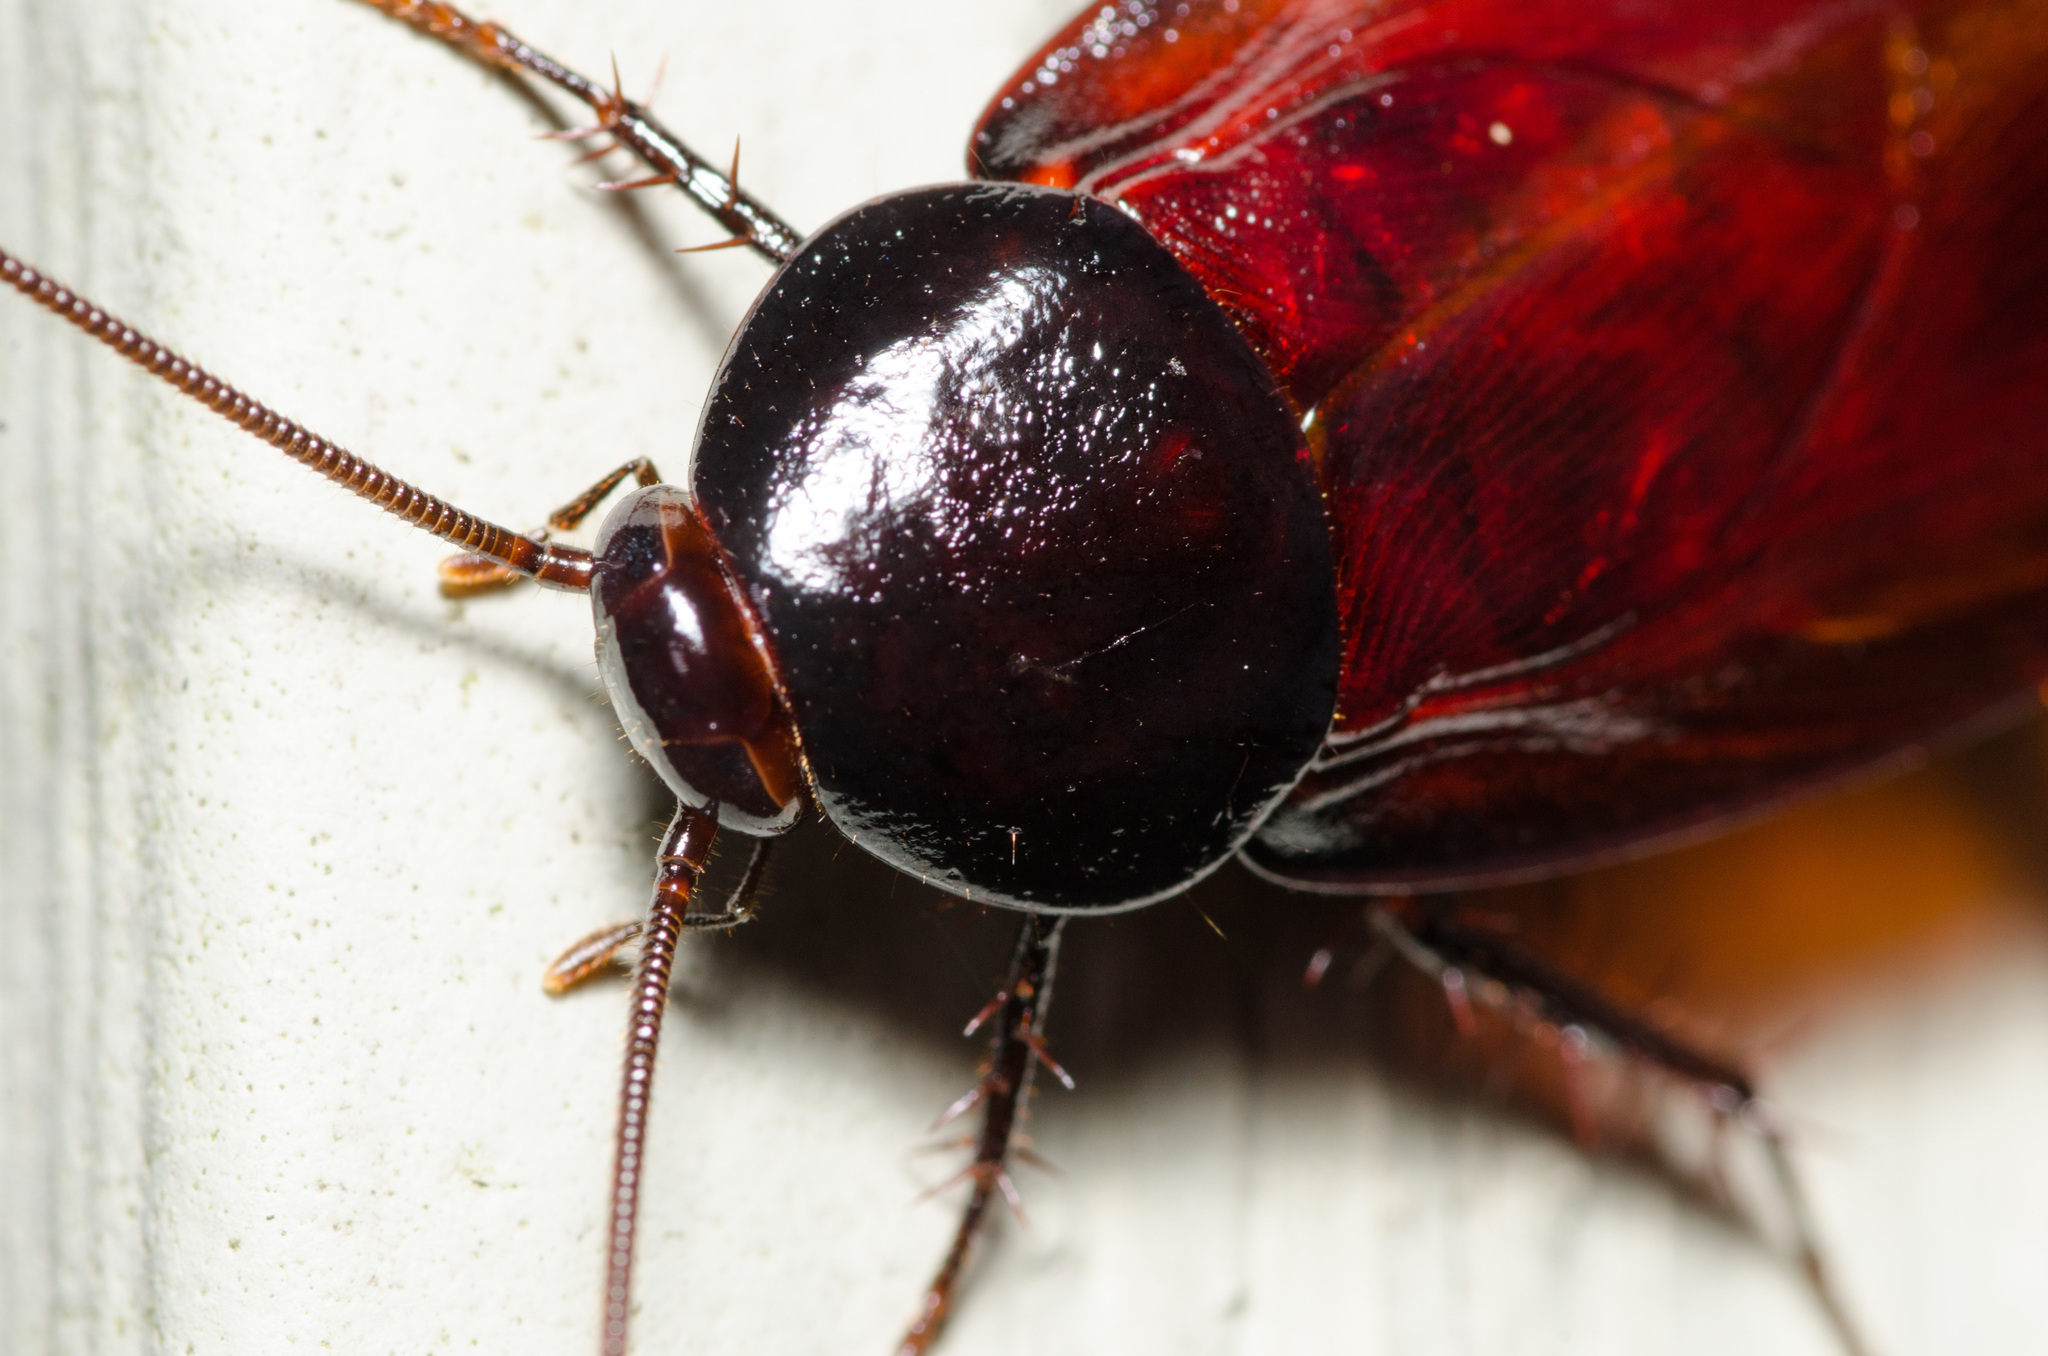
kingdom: Animalia
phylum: Arthropoda
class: Insecta
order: Blattodea
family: Blattidae
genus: Periplaneta
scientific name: Periplaneta fuliginosa
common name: Smokeybrown cockroad
